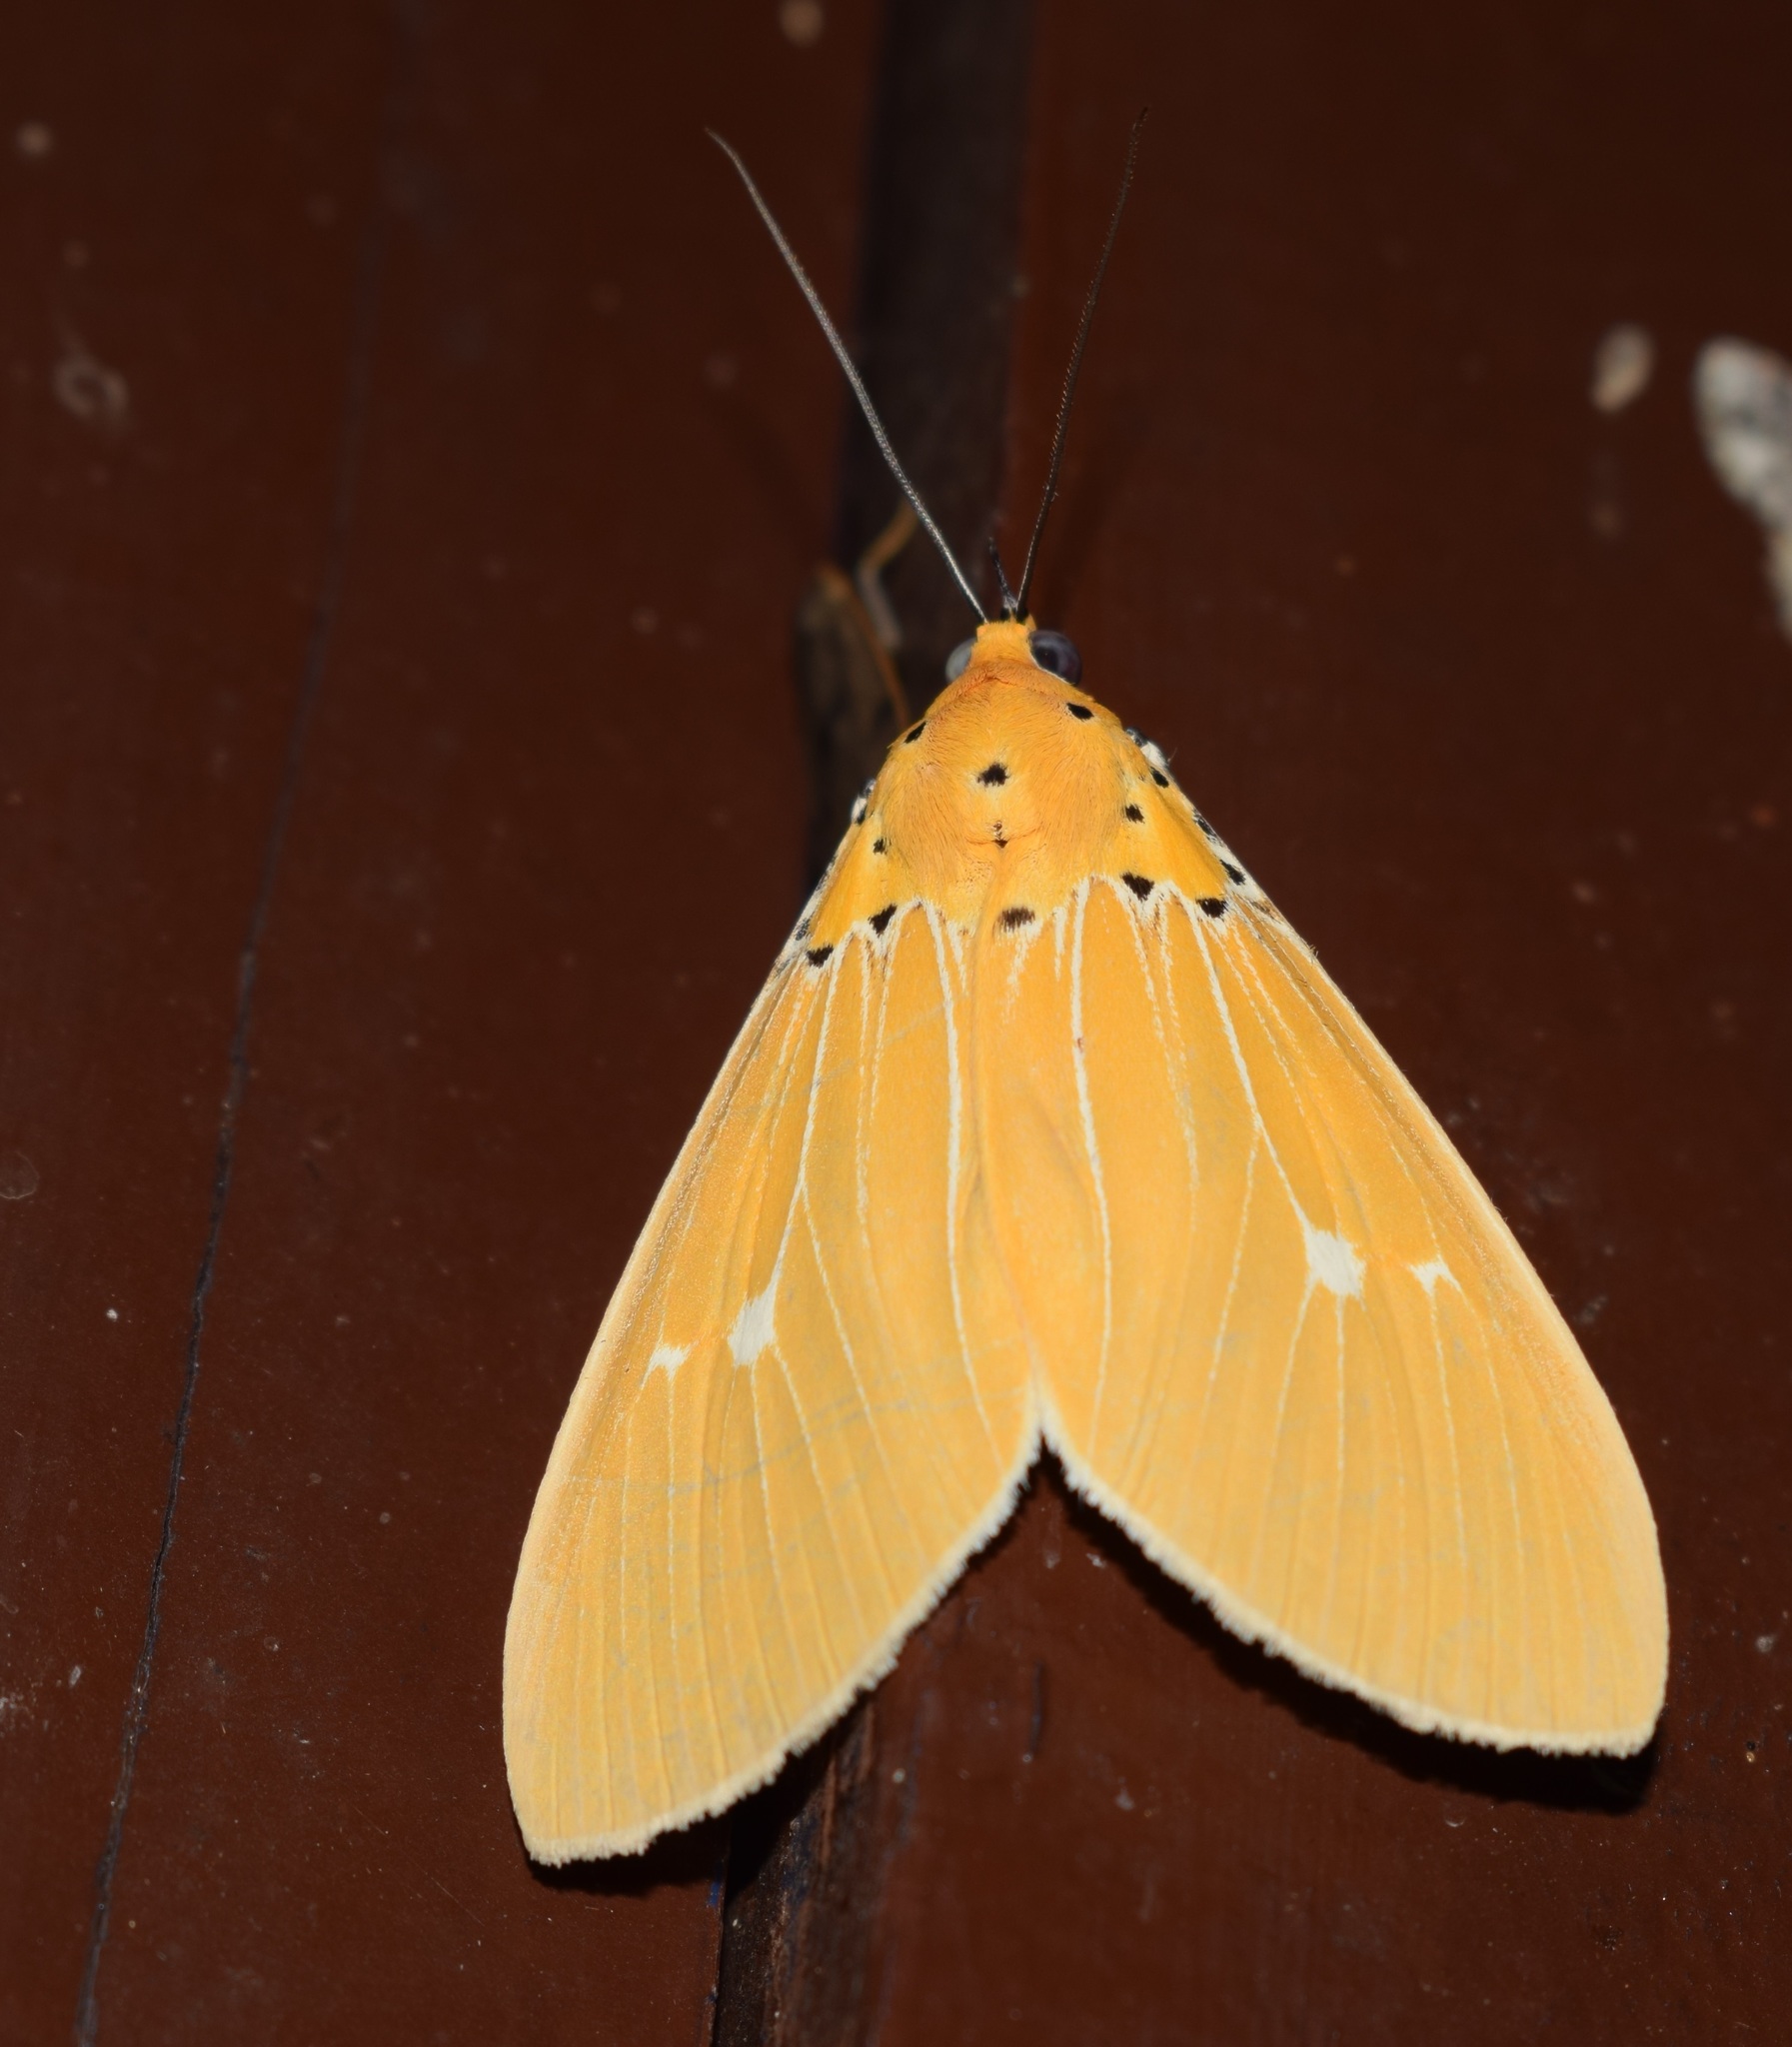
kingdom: Animalia
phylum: Arthropoda
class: Insecta
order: Lepidoptera
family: Erebidae
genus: Asota
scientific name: Asota sericea
